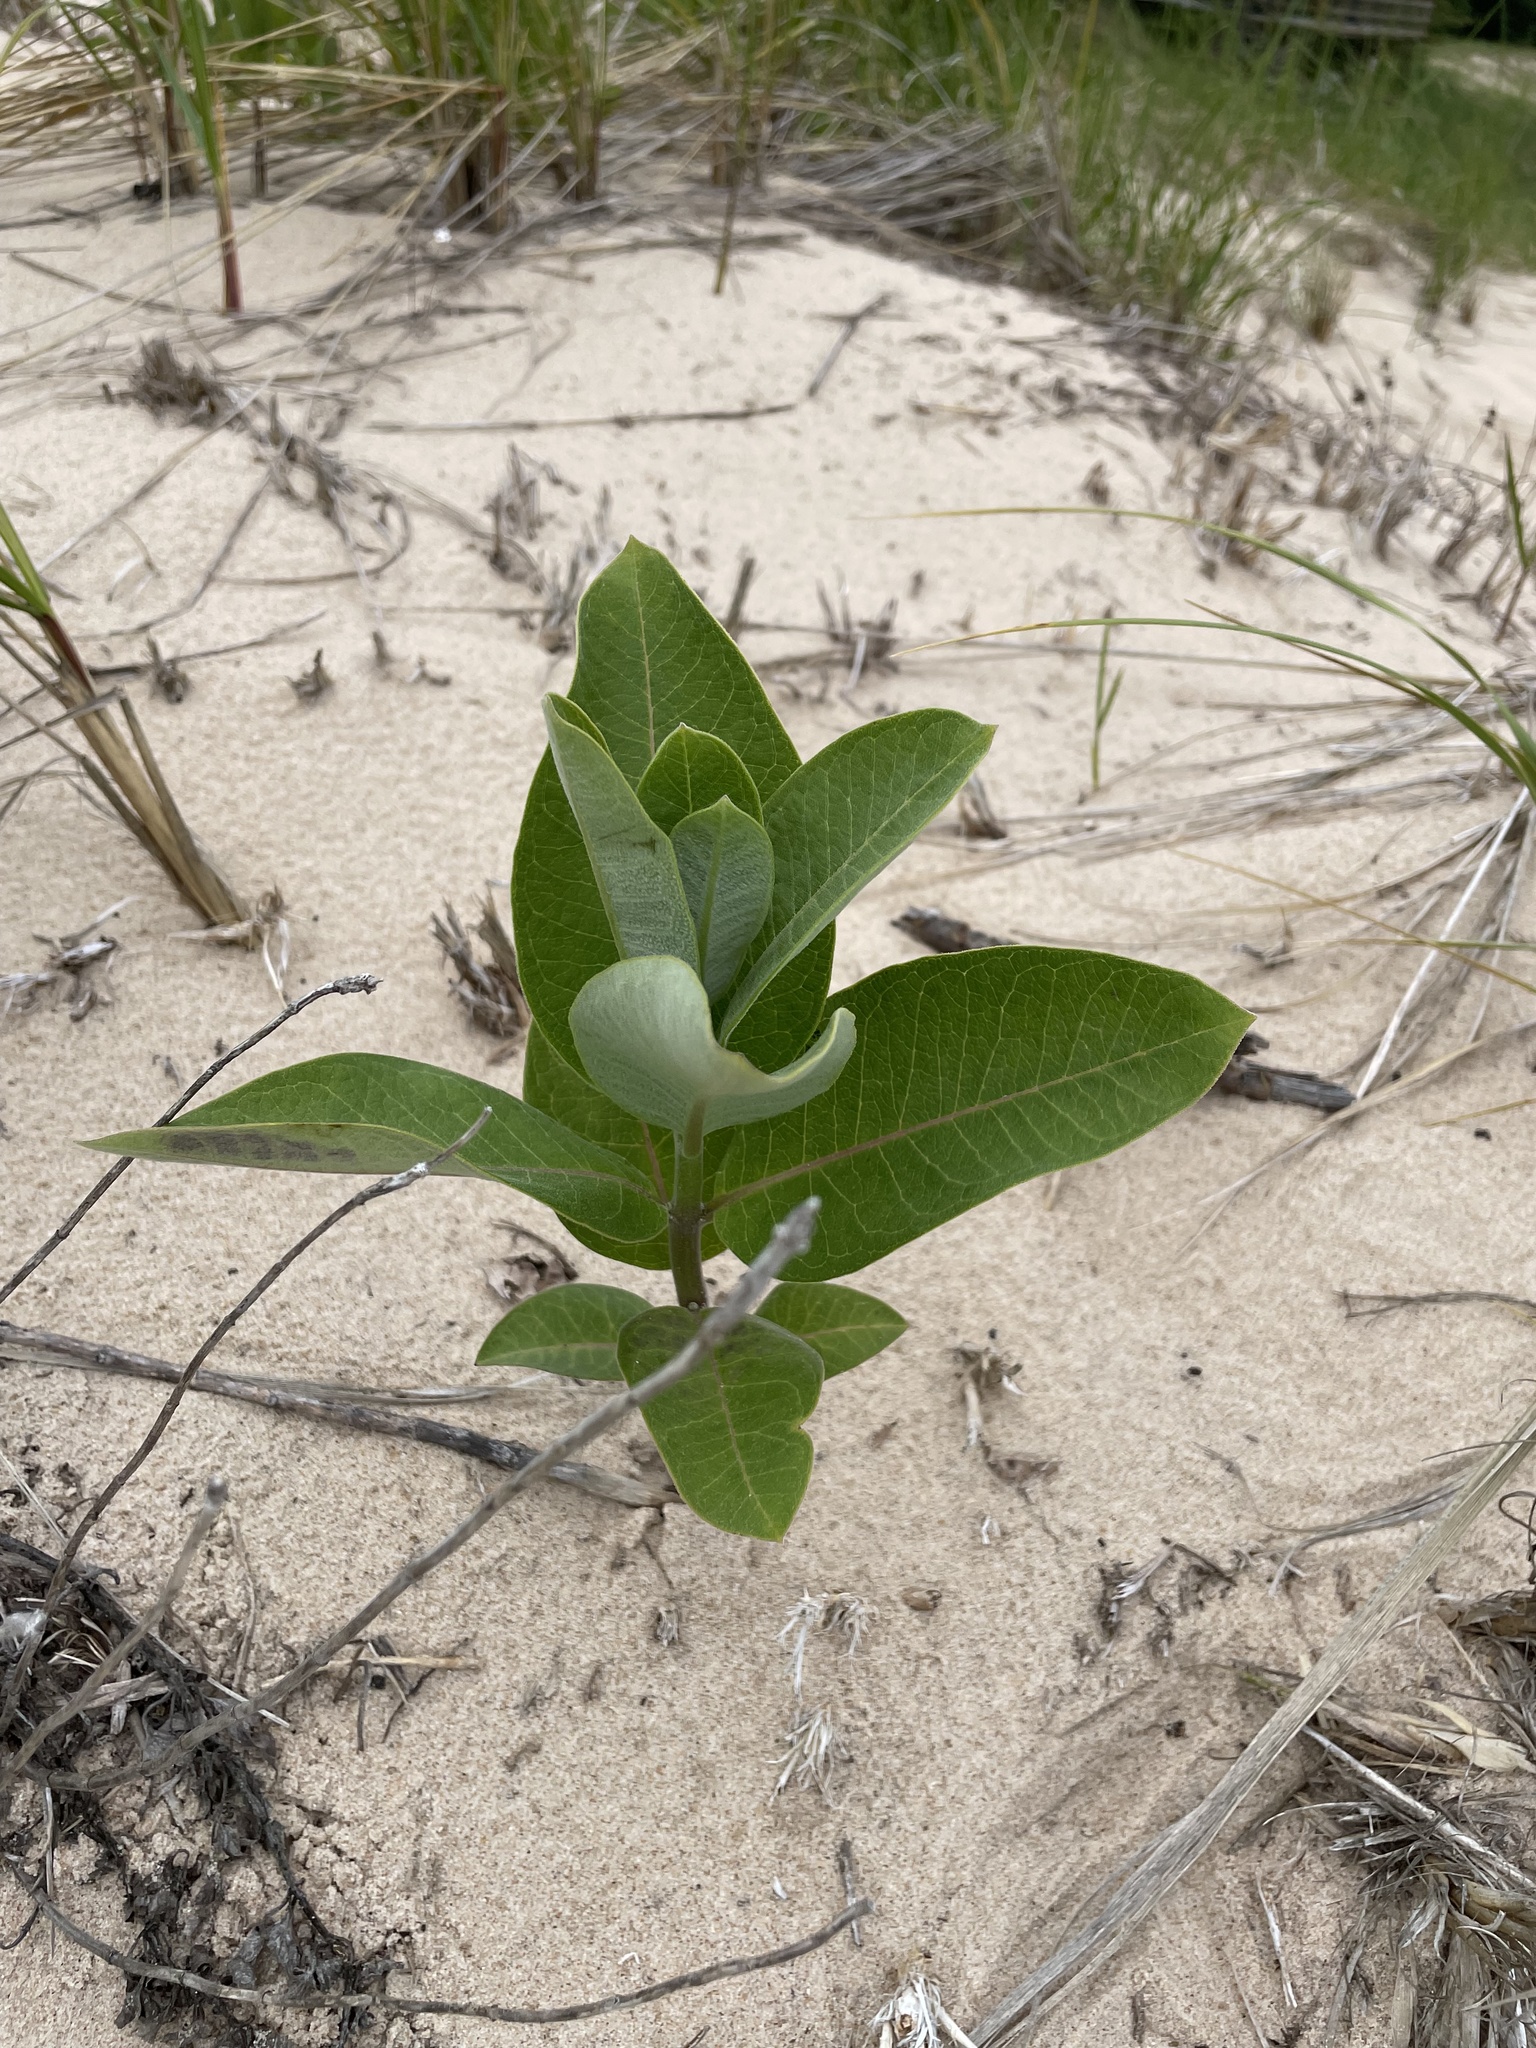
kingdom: Plantae
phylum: Tracheophyta
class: Magnoliopsida
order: Gentianales
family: Apocynaceae
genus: Asclepias
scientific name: Asclepias syriaca
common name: Common milkweed
